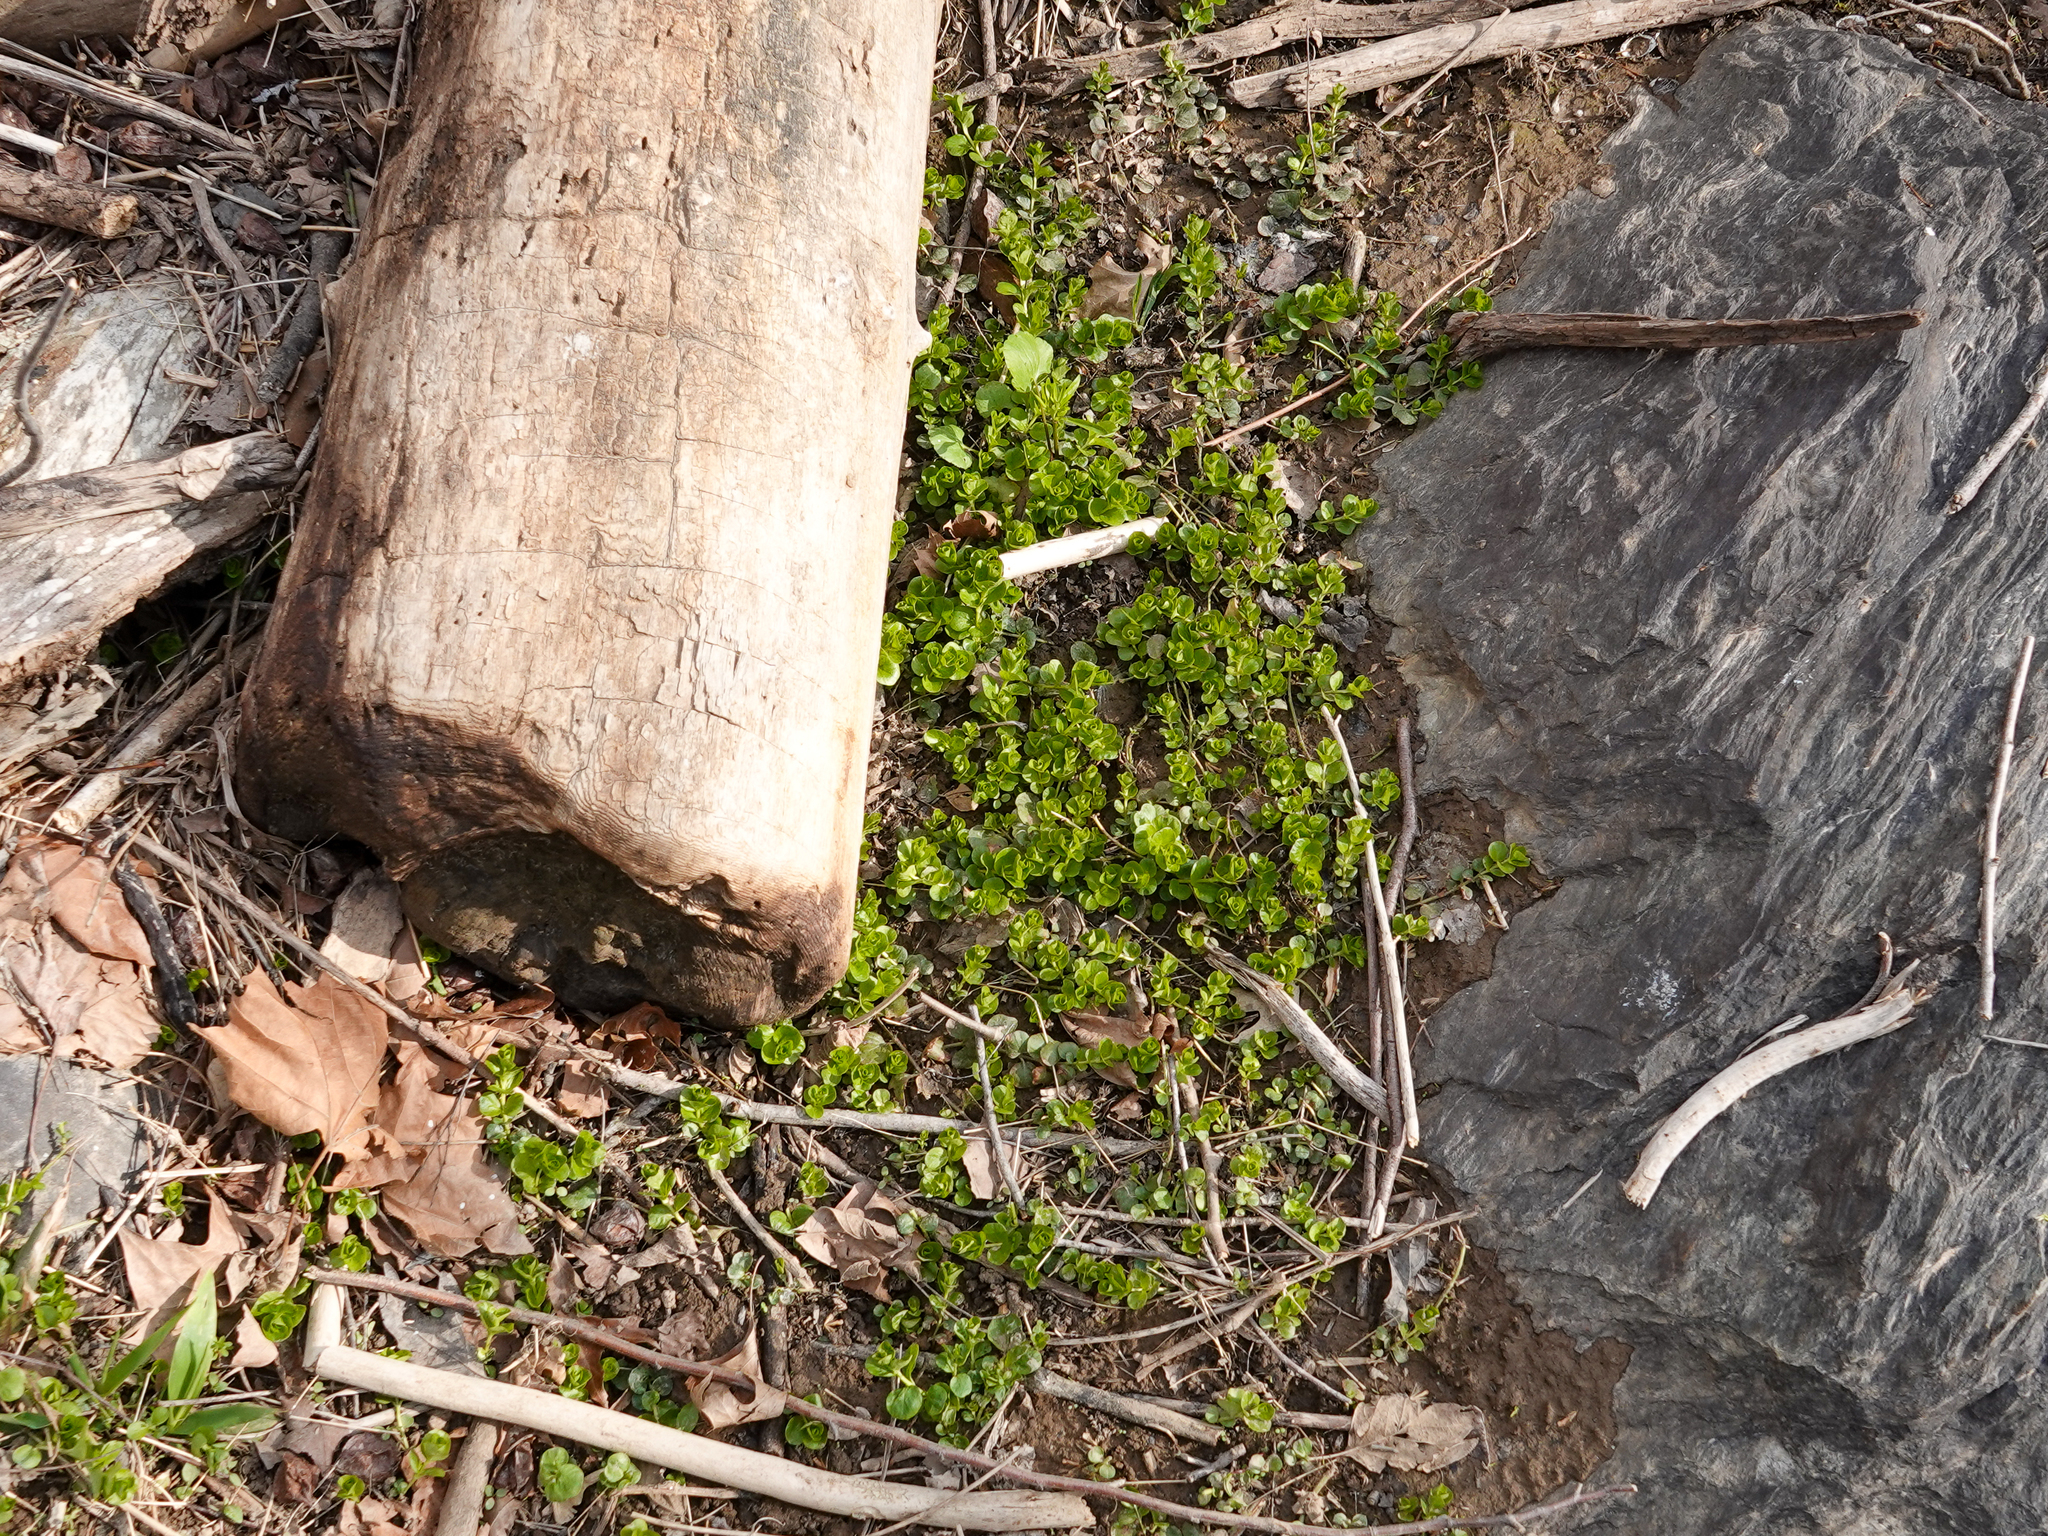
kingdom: Plantae
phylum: Tracheophyta
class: Magnoliopsida
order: Ericales
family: Primulaceae
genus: Lysimachia
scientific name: Lysimachia nummularia
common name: Moneywort
